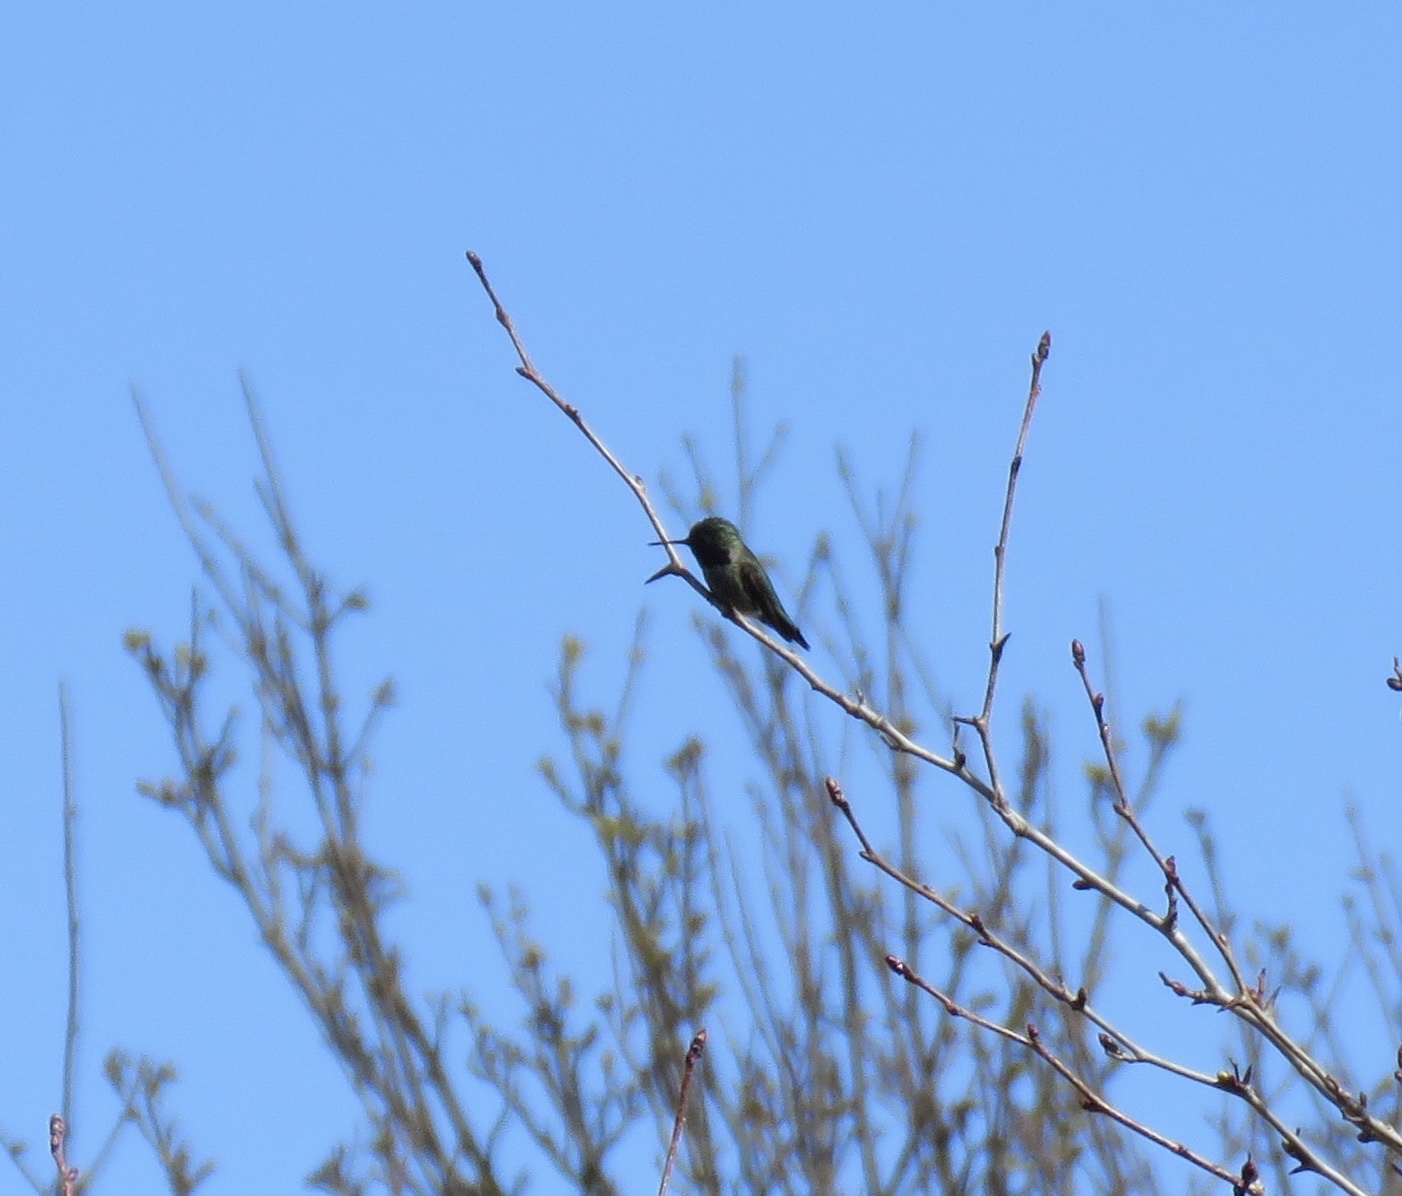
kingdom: Animalia
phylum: Chordata
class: Aves
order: Apodiformes
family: Trochilidae
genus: Calypte
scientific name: Calypte anna
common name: Anna's hummingbird
